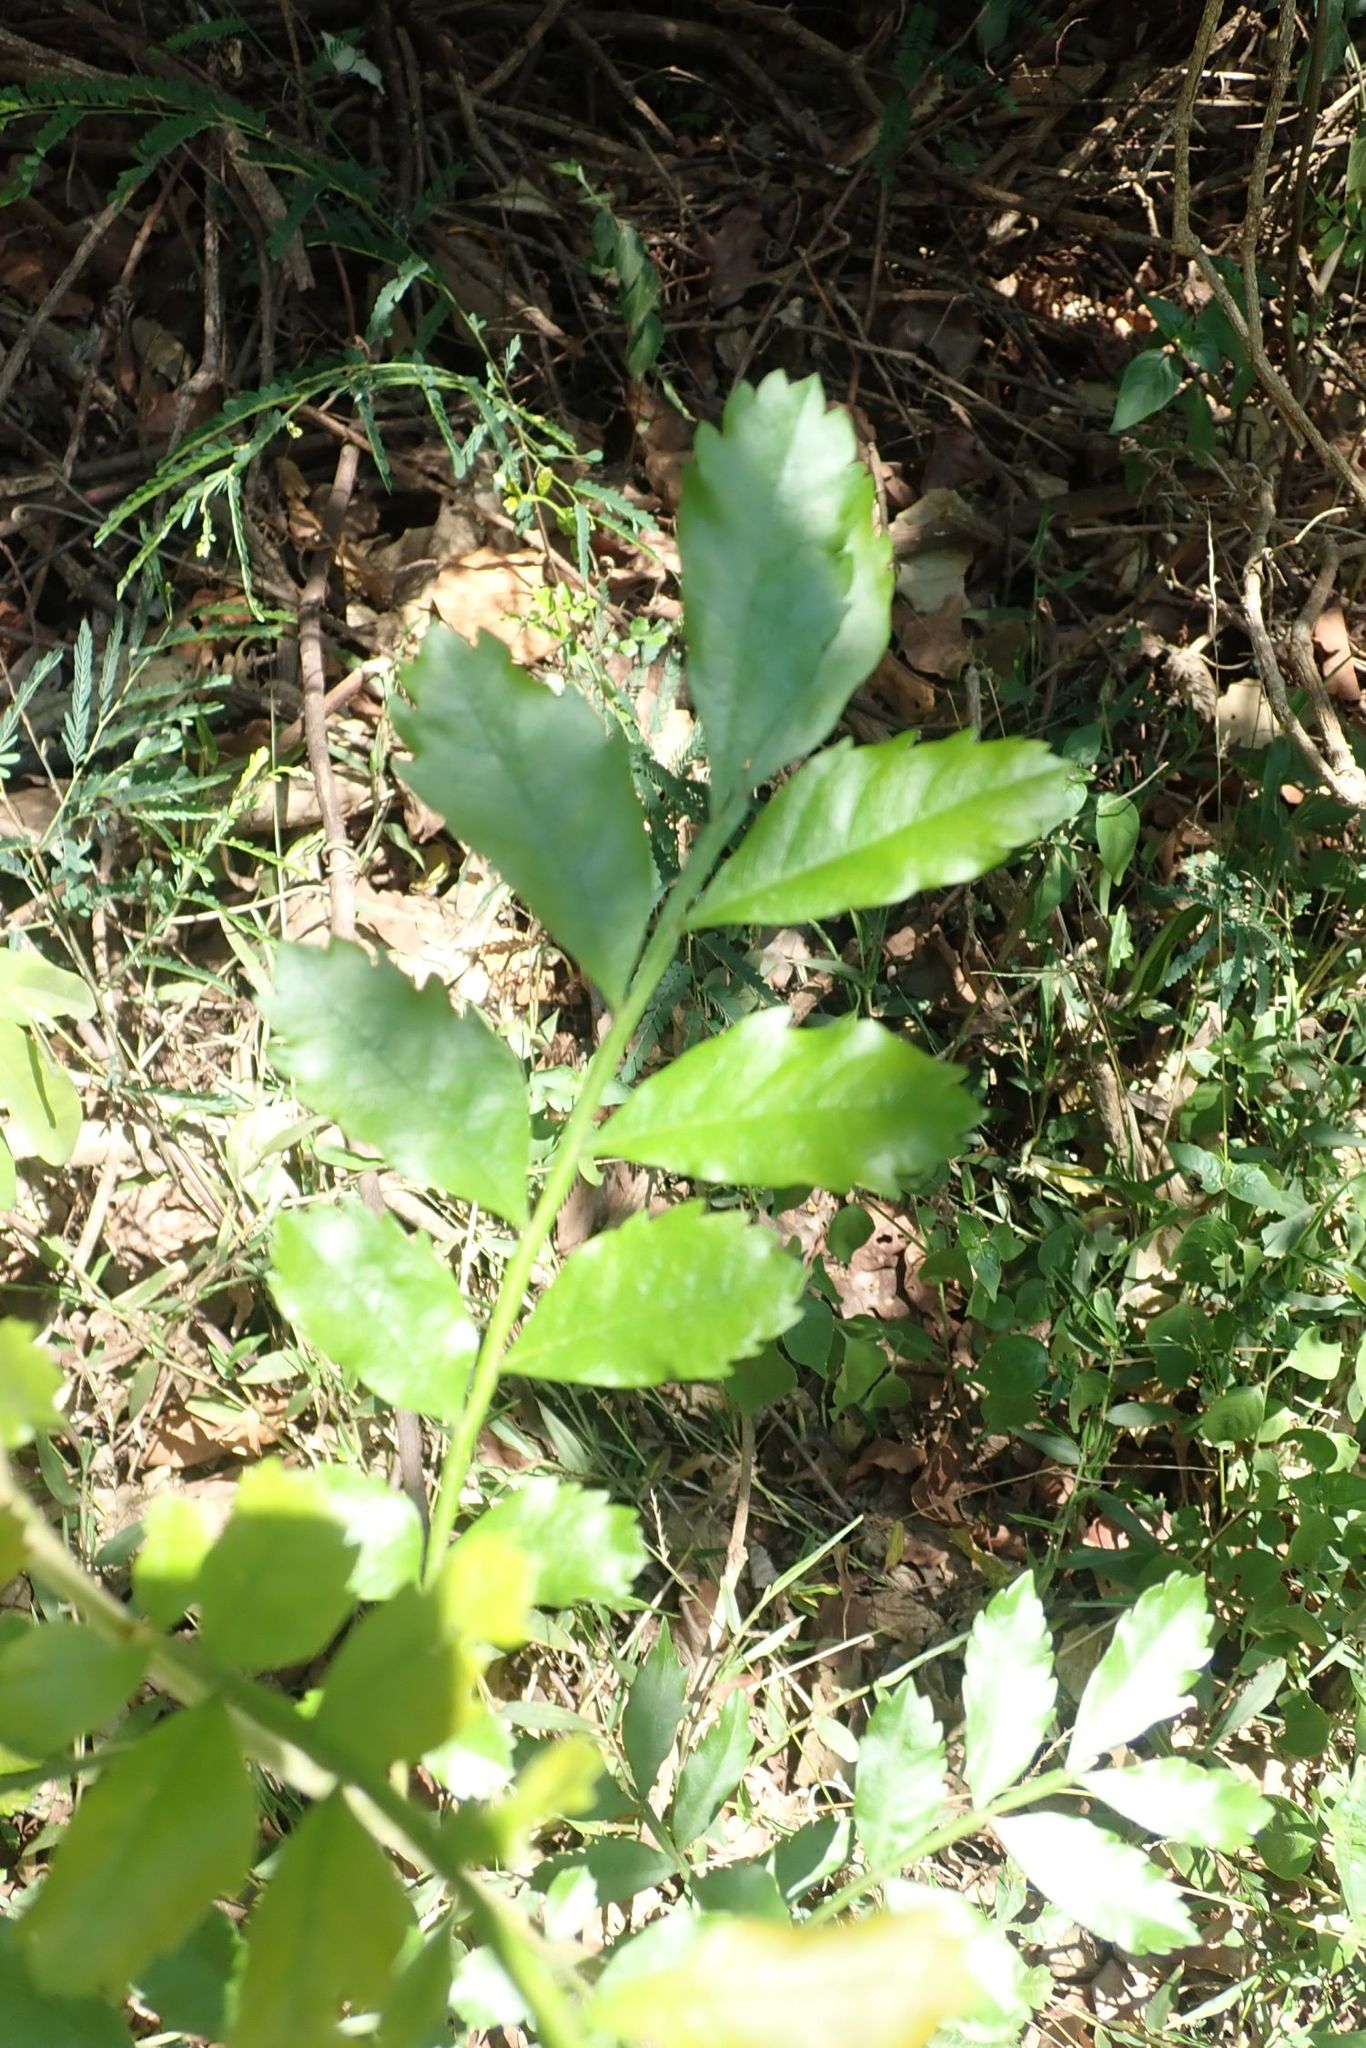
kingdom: Plantae
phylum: Tracheophyta
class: Magnoliopsida
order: Sapindales
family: Sapindaceae
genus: Hippobromus
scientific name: Hippobromus pauciflorus
